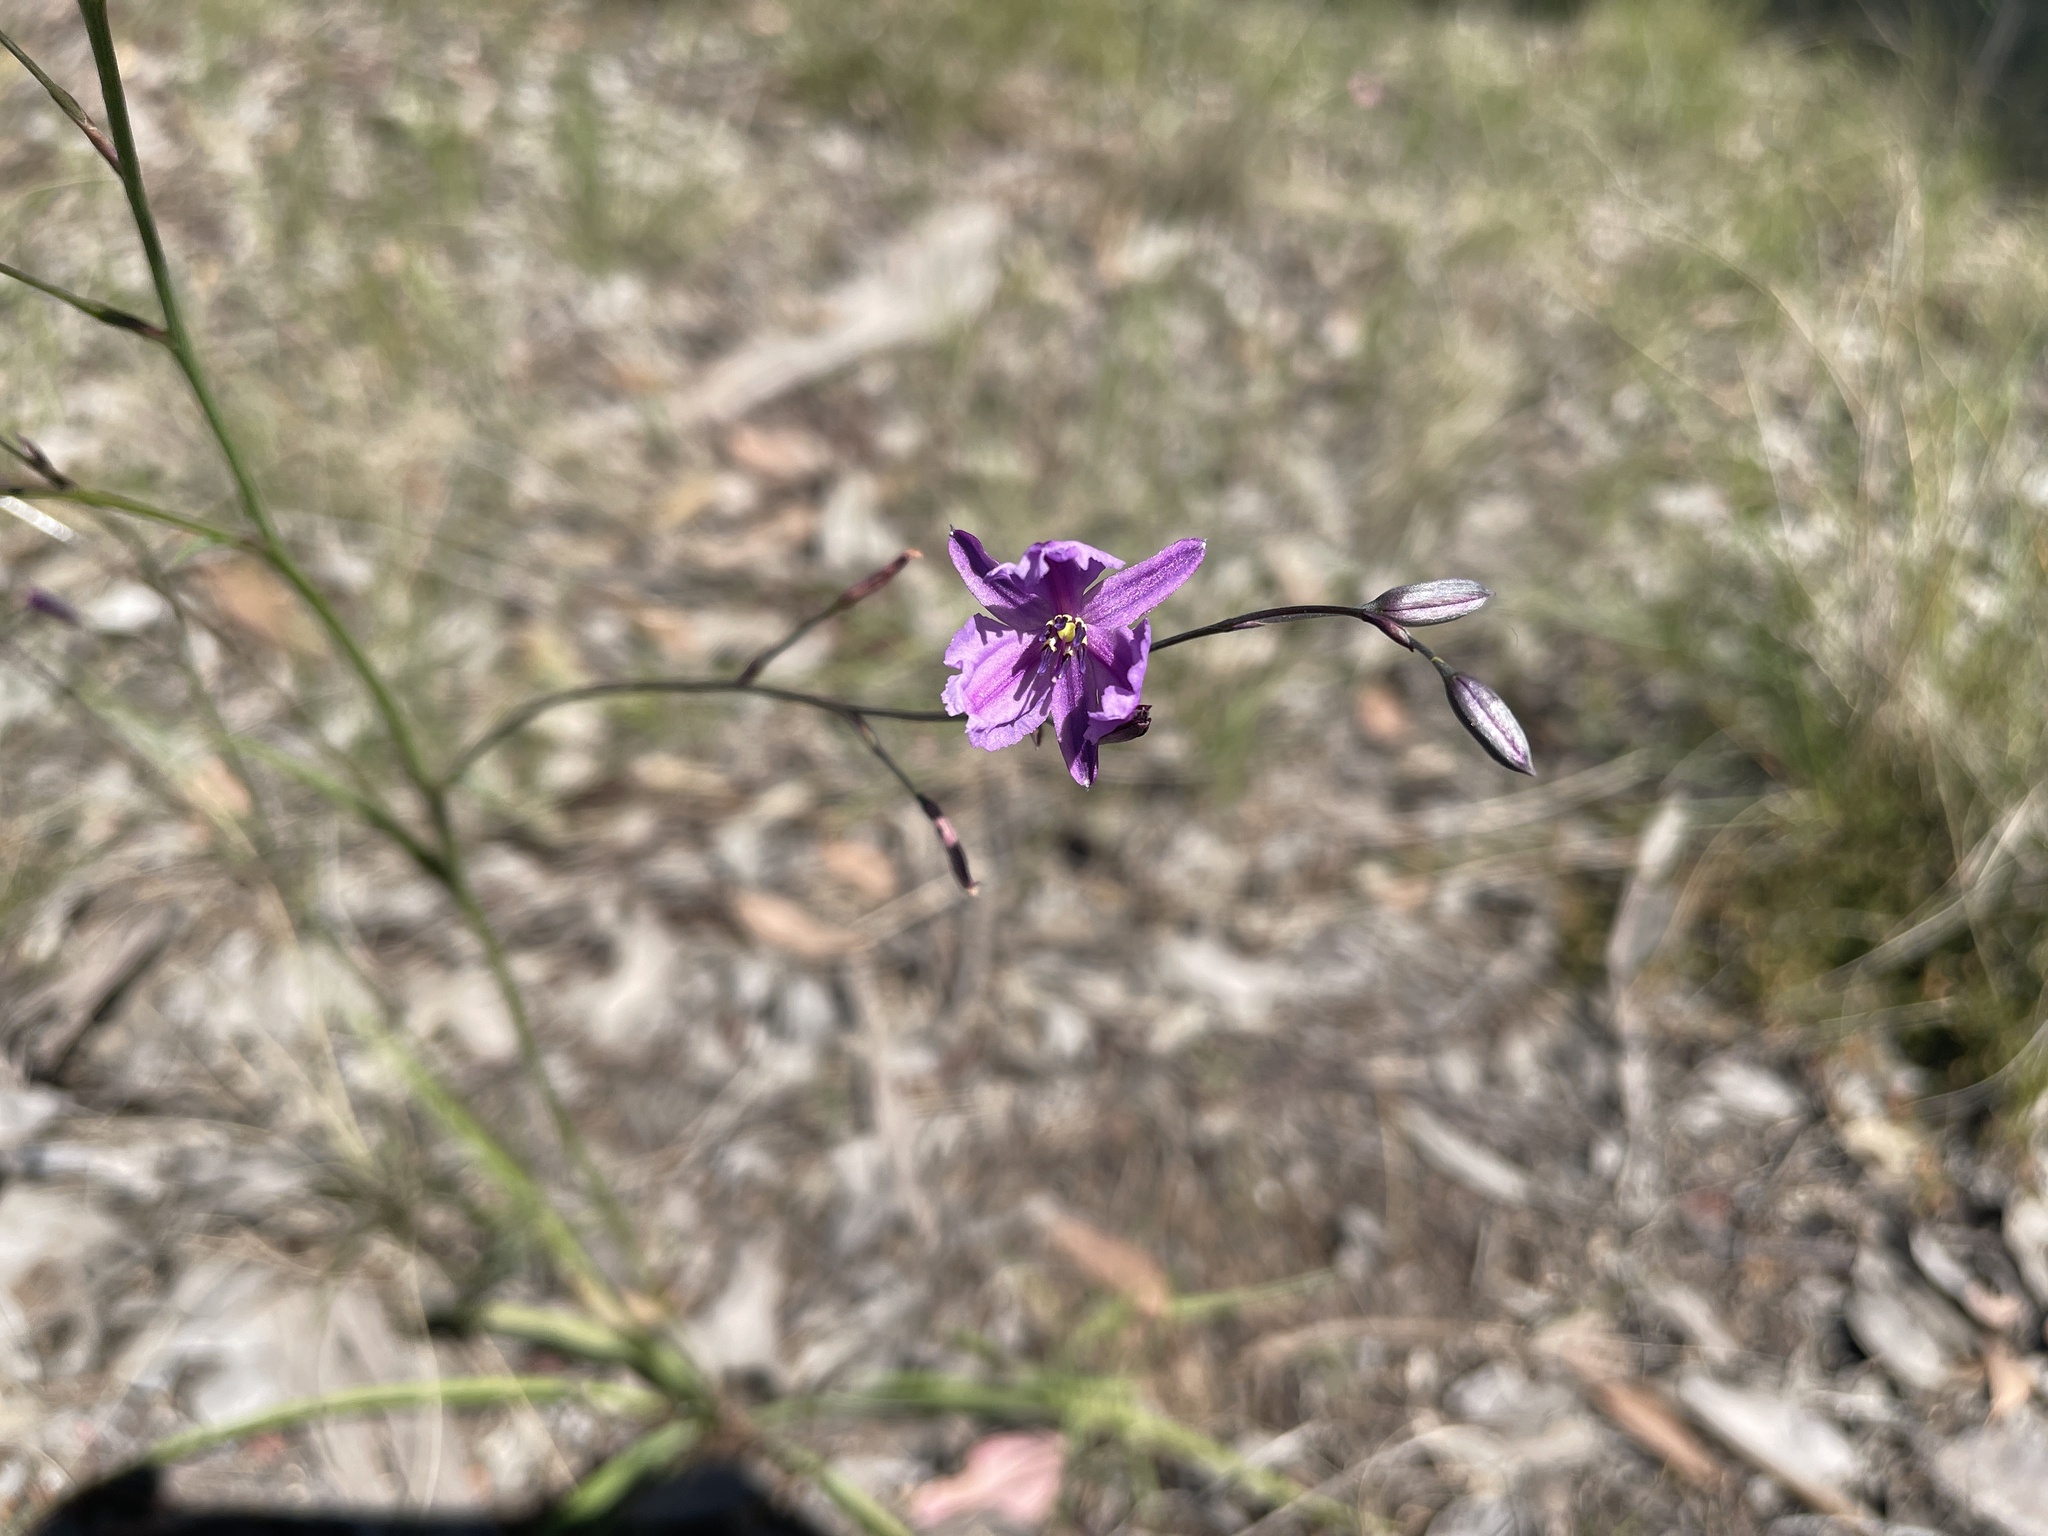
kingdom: Plantae
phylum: Tracheophyta
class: Liliopsida
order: Asparagales
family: Asparagaceae
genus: Arthropodium
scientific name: Arthropodium strictum
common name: Chocolate-lily
